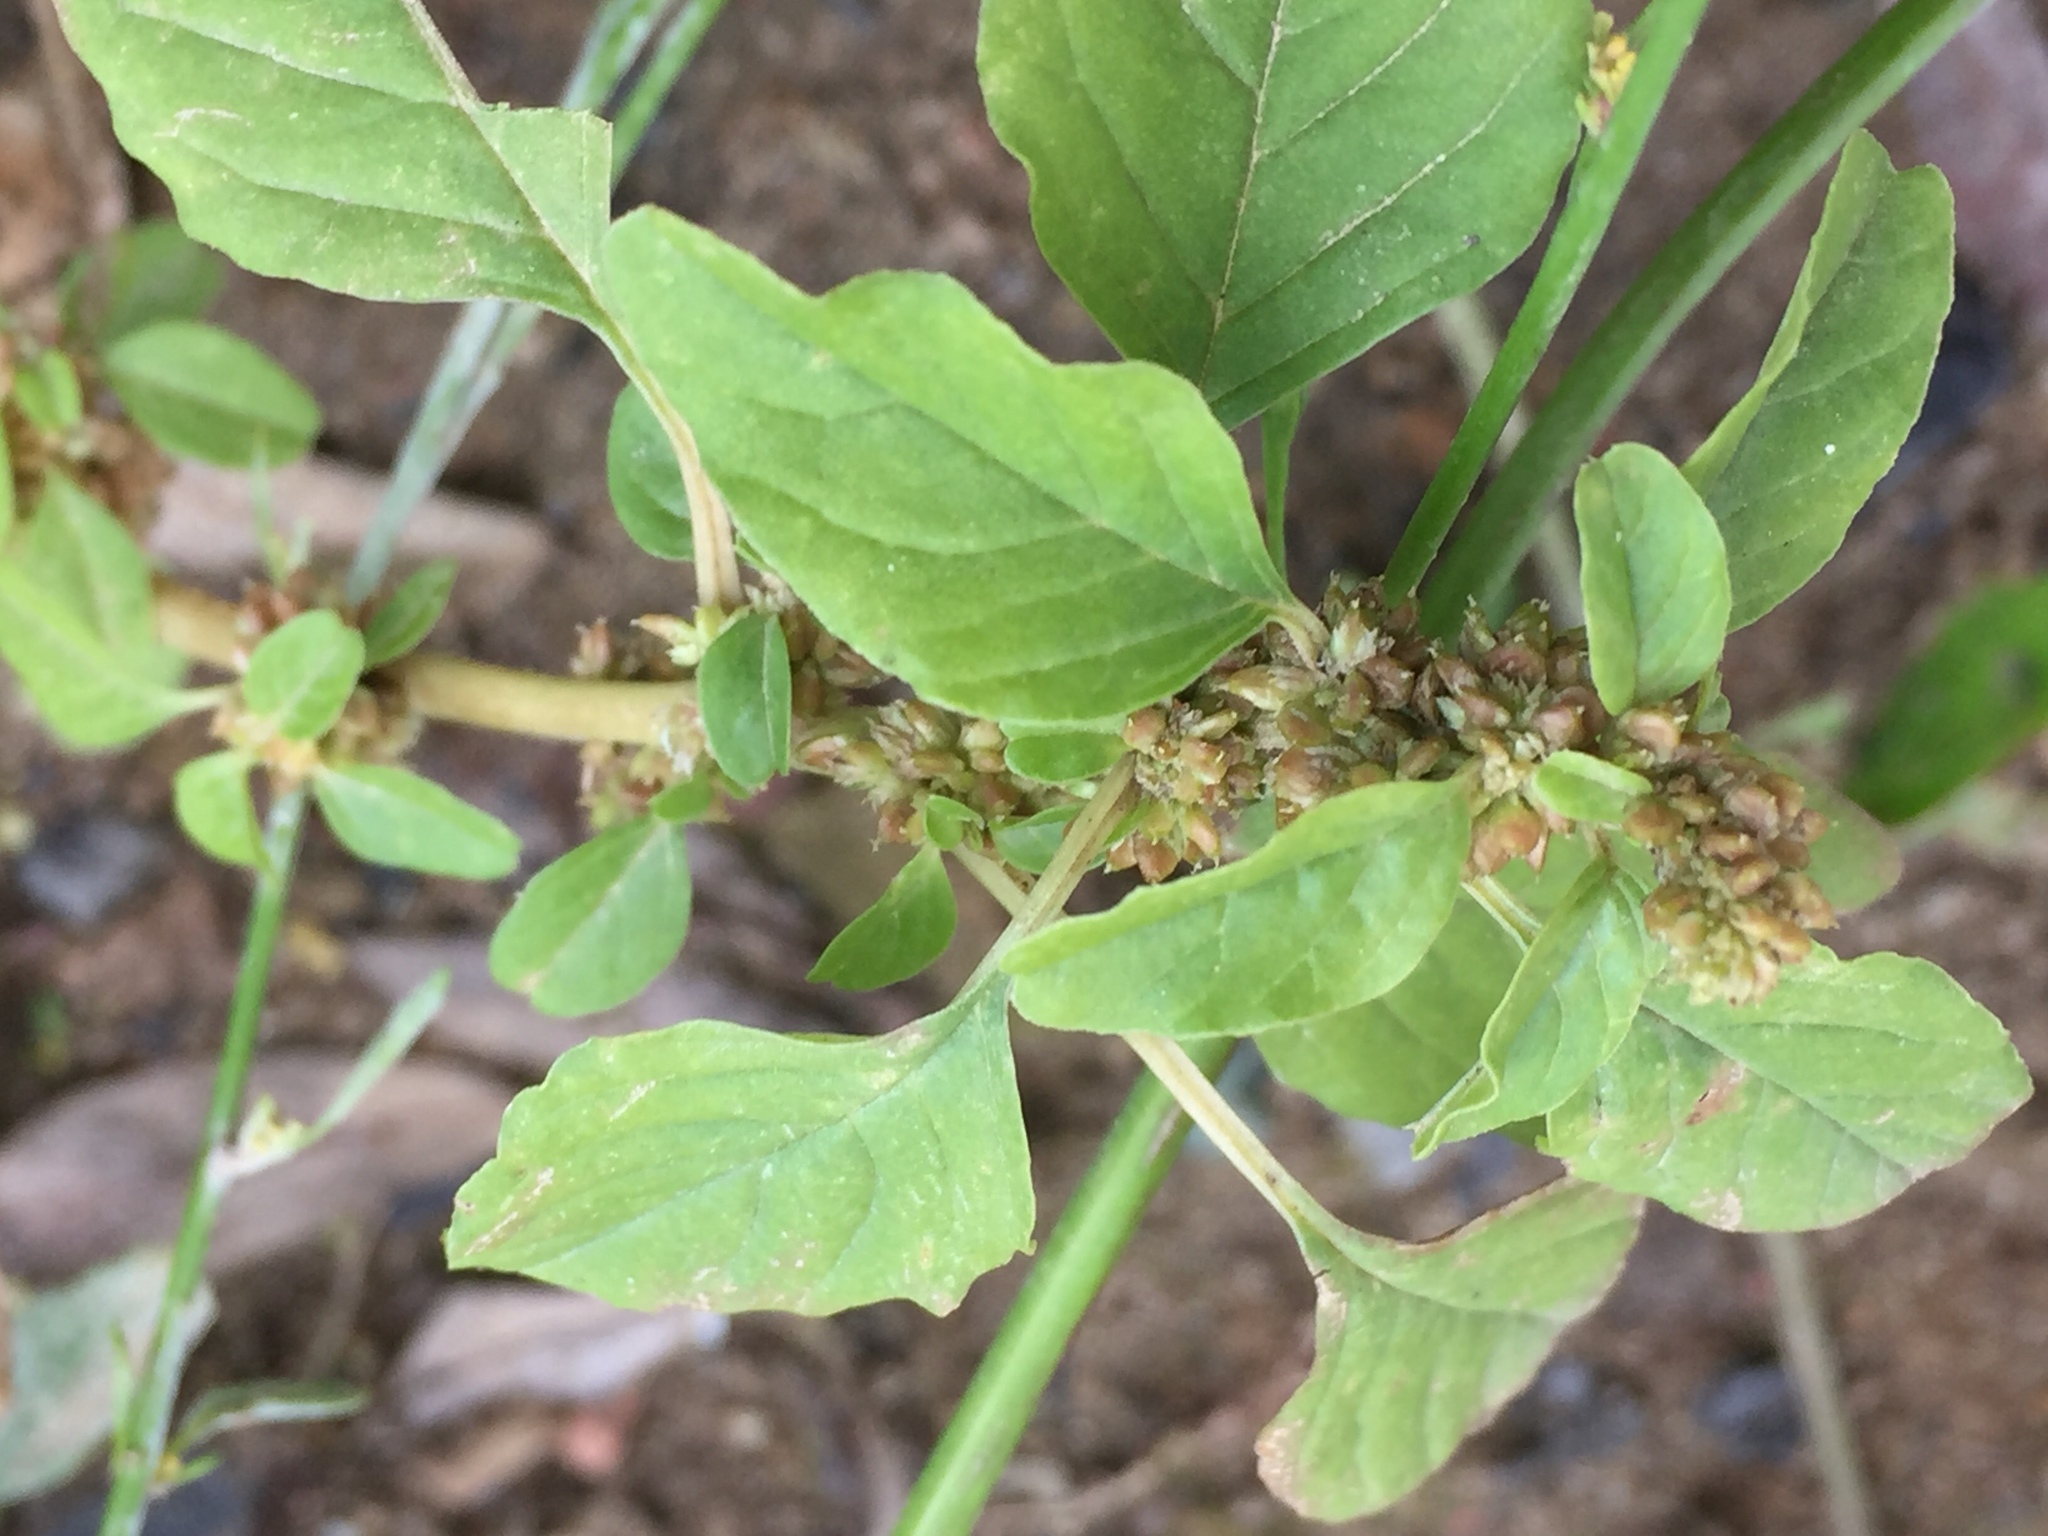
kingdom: Plantae
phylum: Tracheophyta
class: Magnoliopsida
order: Caryophyllales
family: Amaranthaceae
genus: Amaranthus
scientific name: Amaranthus blitum
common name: Purple amaranth
